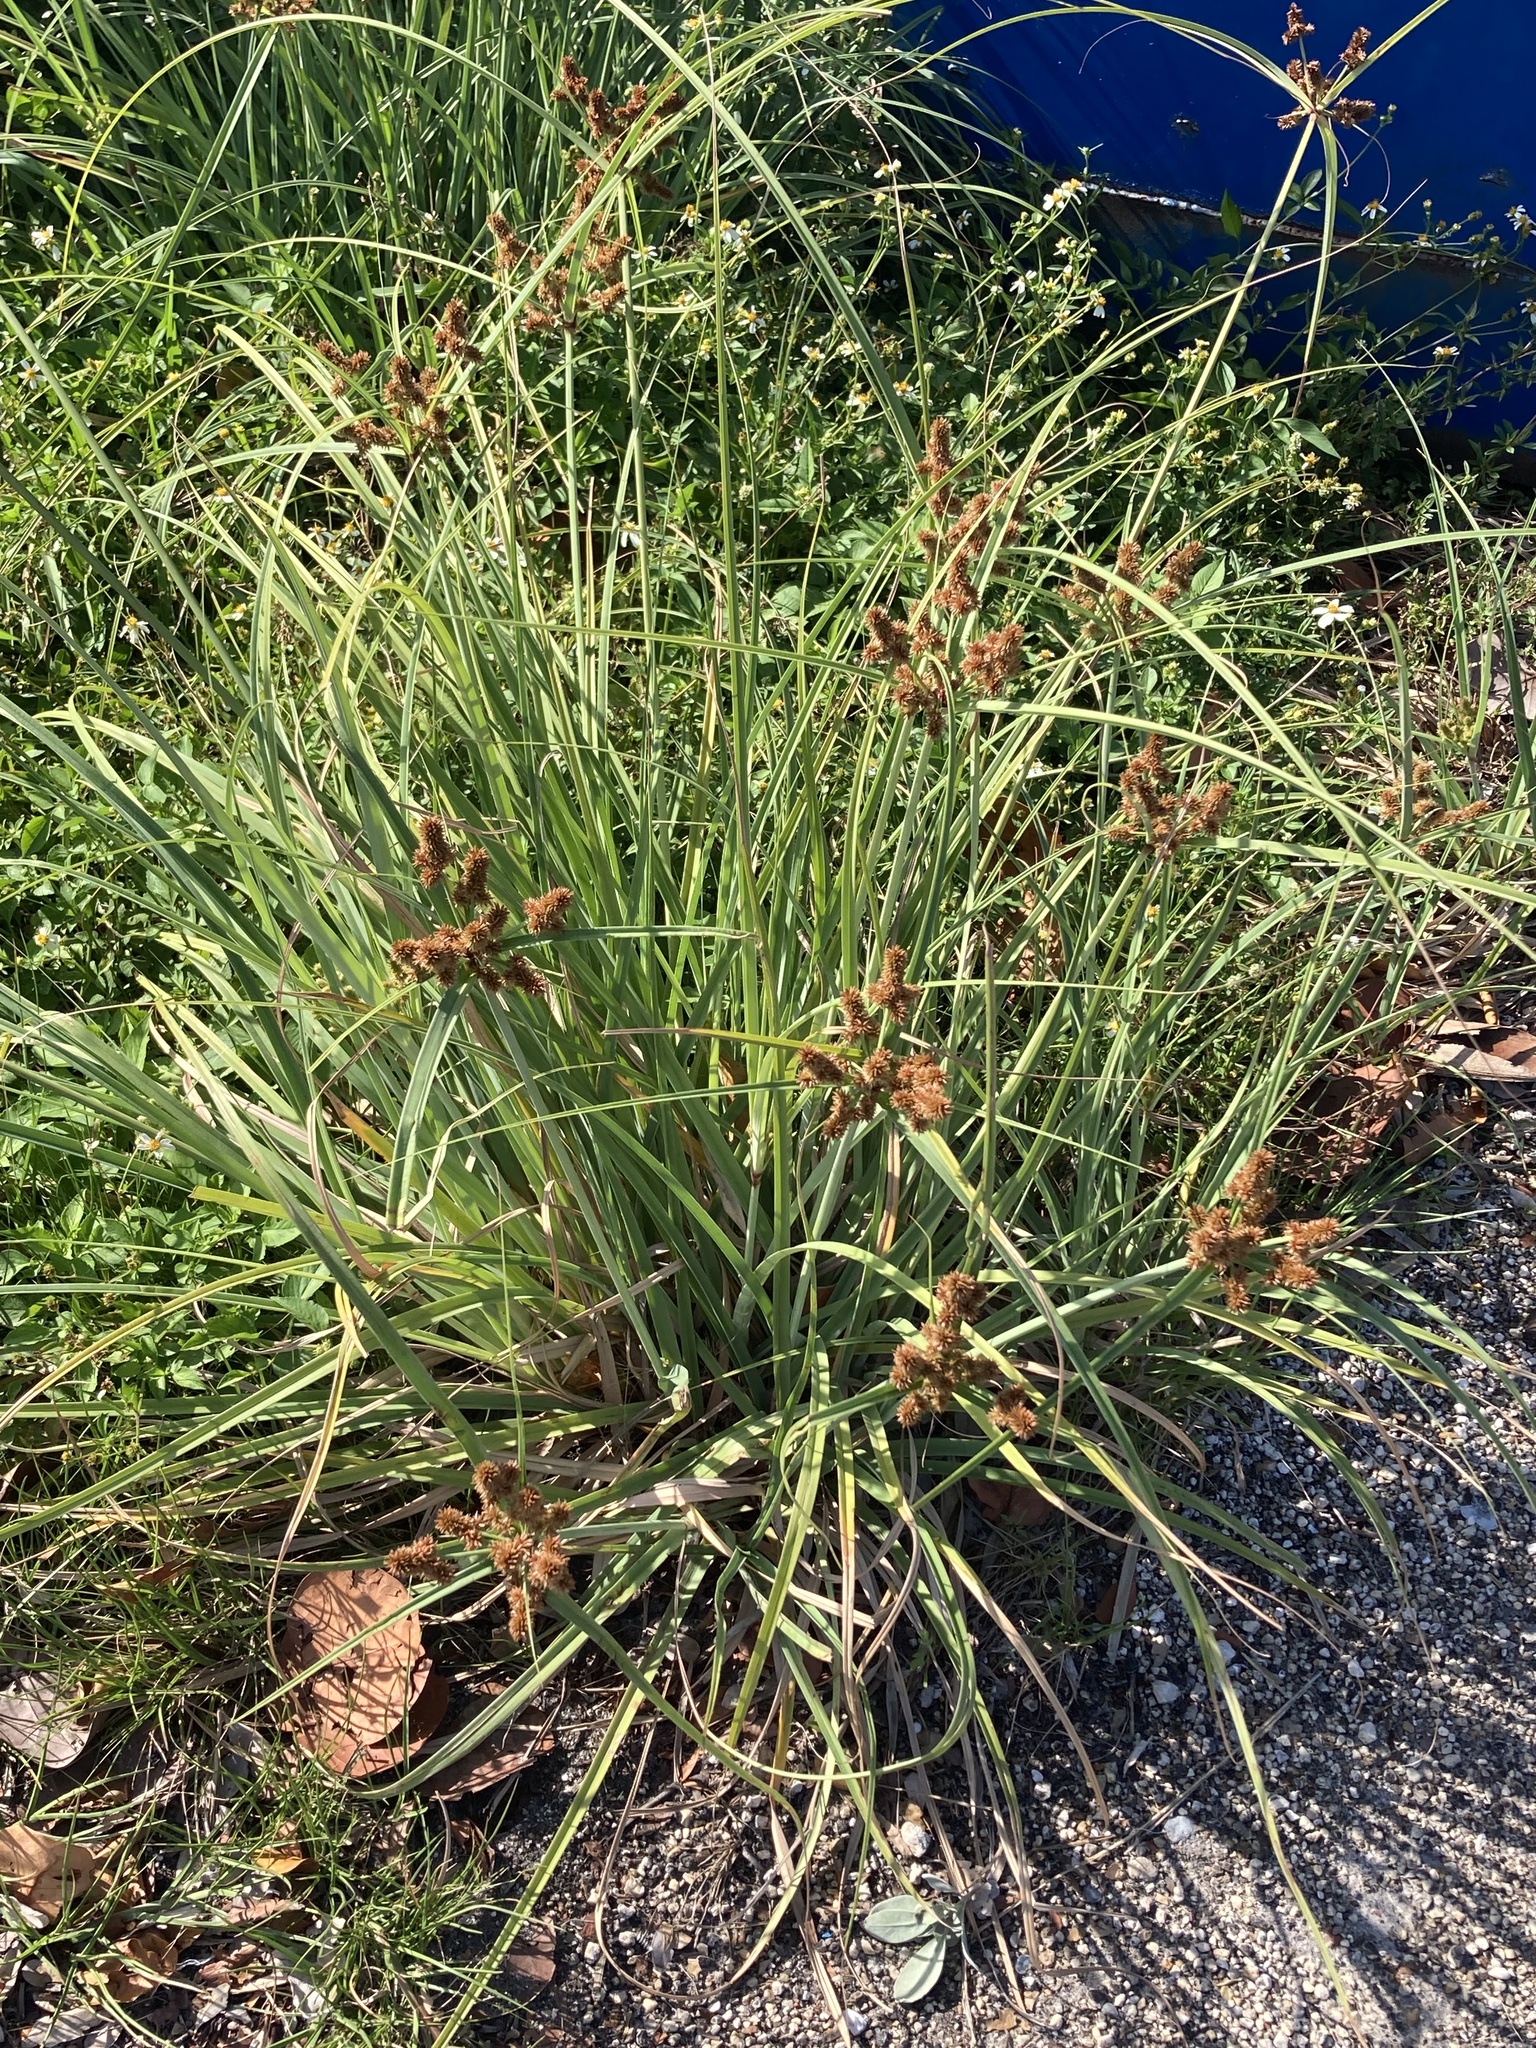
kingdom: Plantae
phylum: Tracheophyta
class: Liliopsida
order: Poales
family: Cyperaceae
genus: Cyperus
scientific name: Cyperus ligularis
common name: Swamp flat sedge
